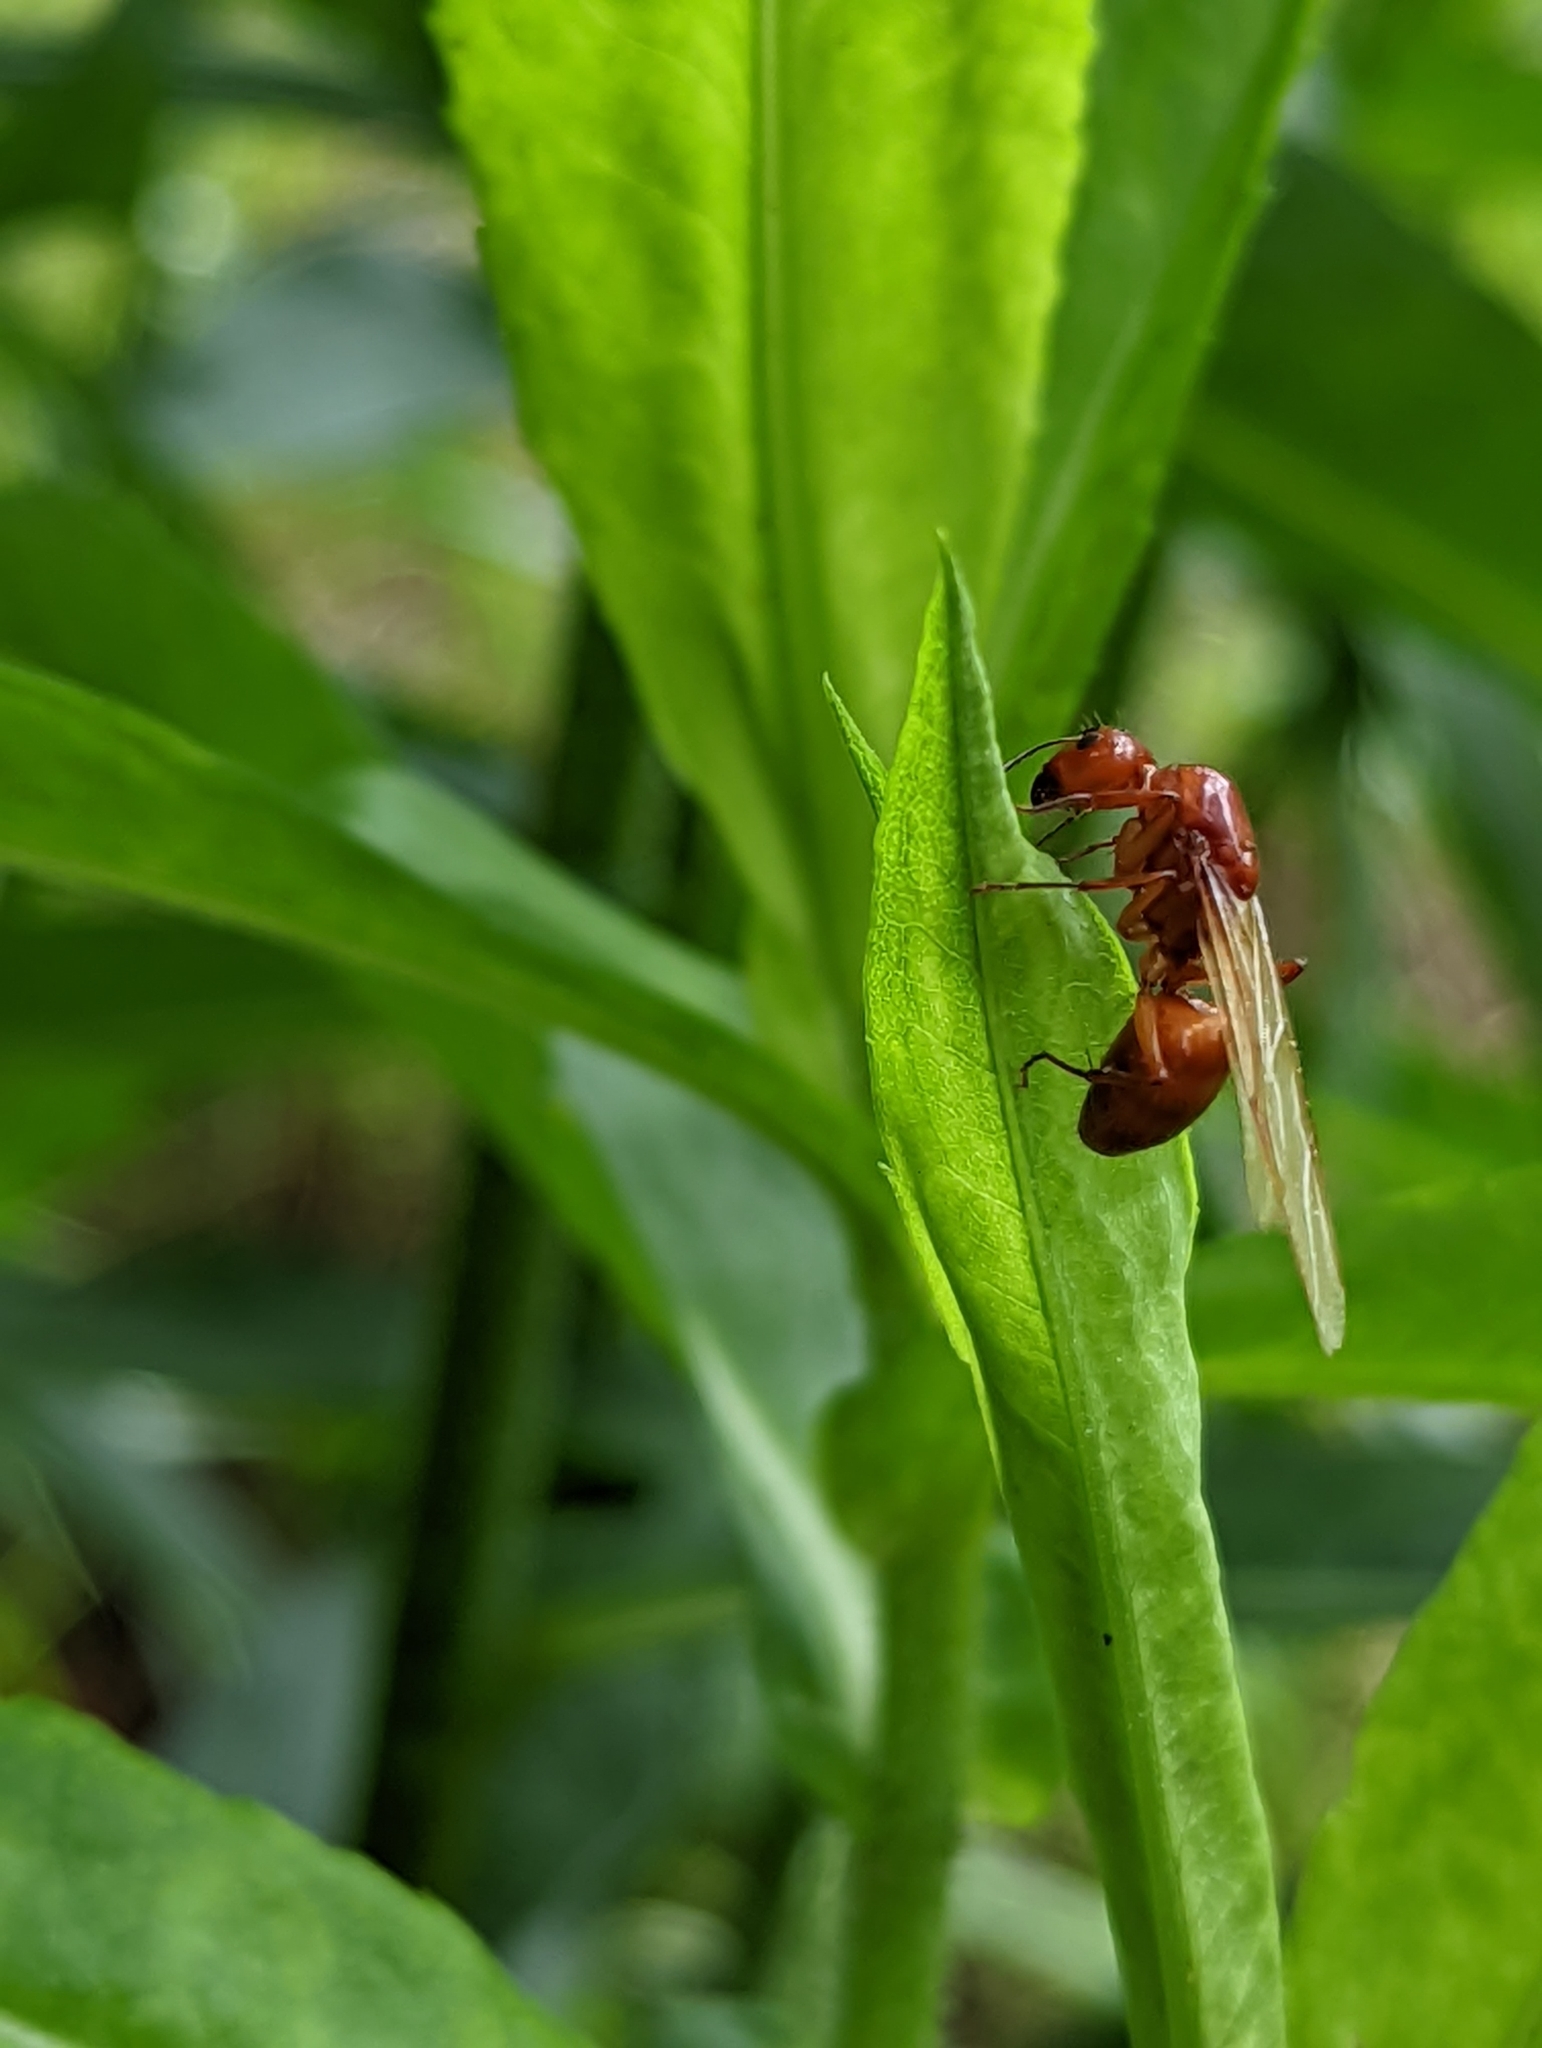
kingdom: Animalia
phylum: Arthropoda
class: Insecta
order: Hymenoptera
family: Formicidae
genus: Camponotus
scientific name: Camponotus castaneus
